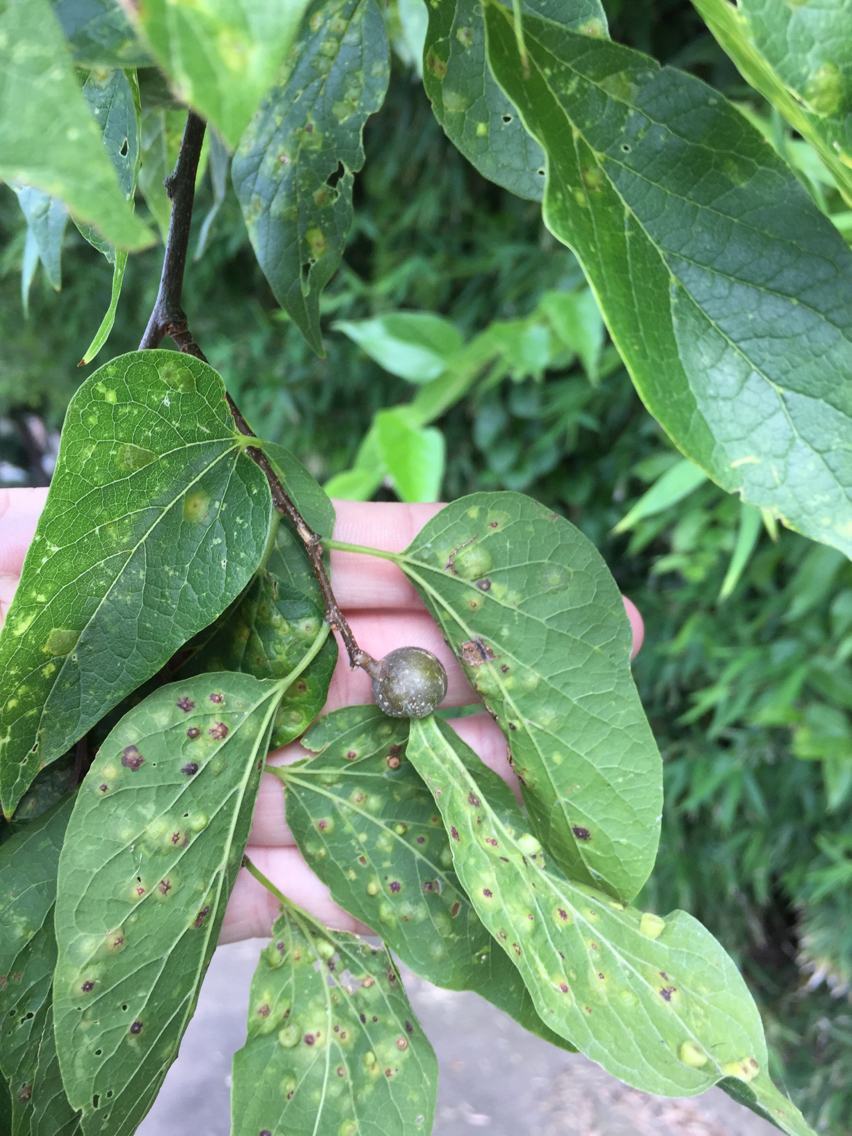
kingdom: Animalia
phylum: Arthropoda
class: Insecta
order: Hemiptera
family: Aphalaridae
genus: Pachypsylla
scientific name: Pachypsylla venusta
